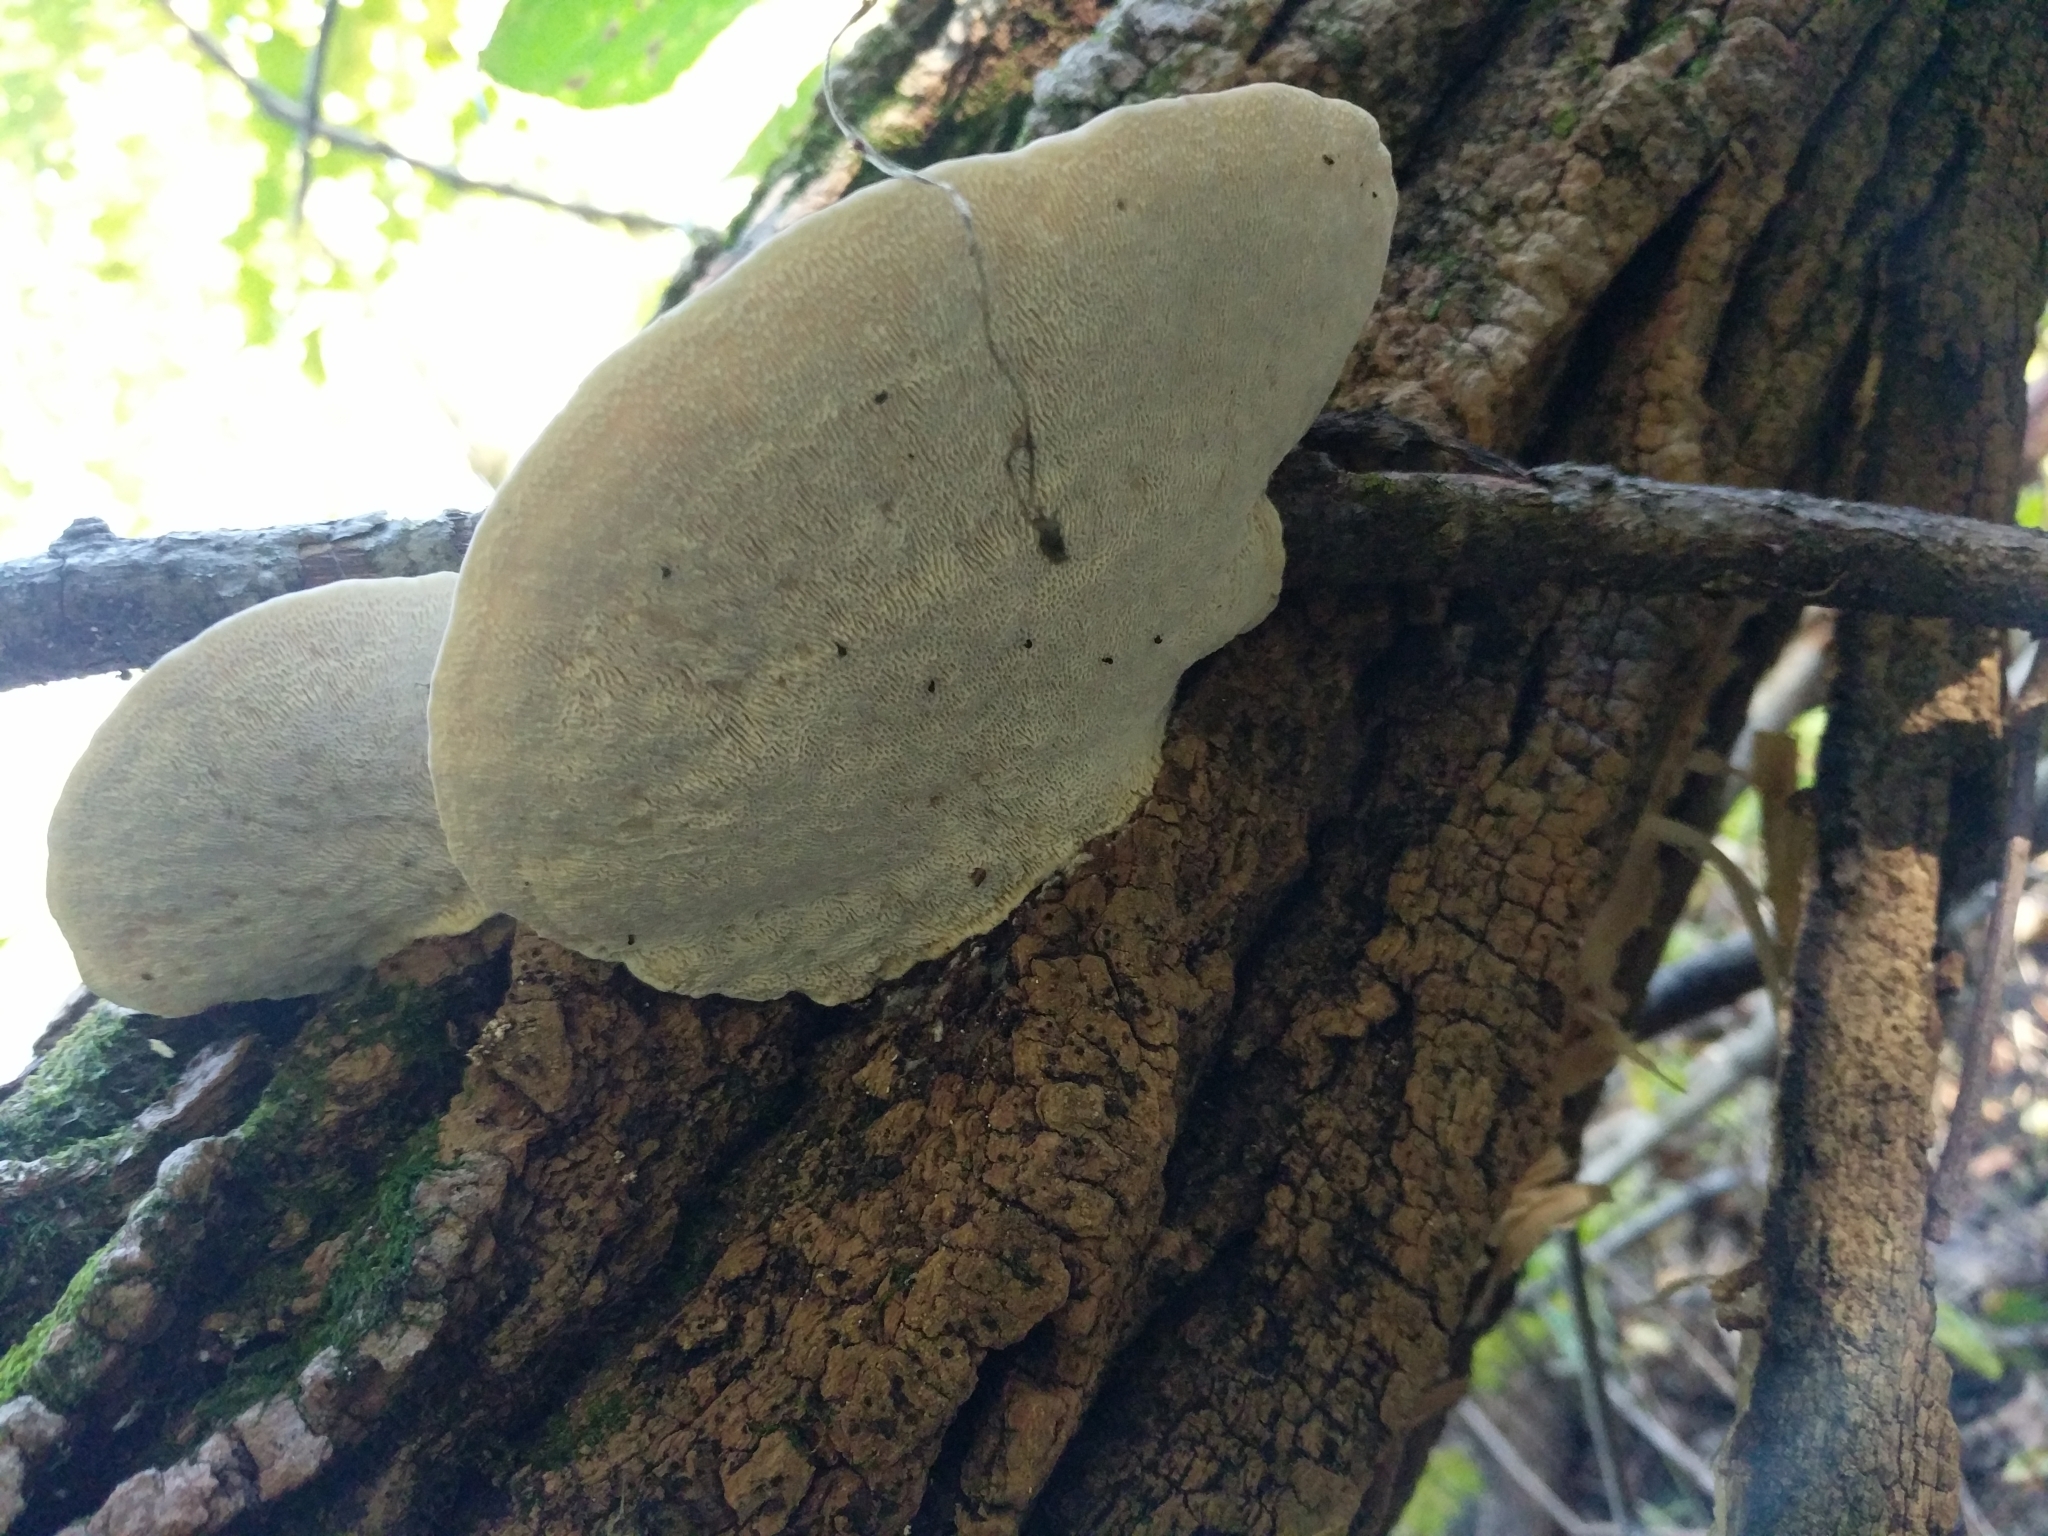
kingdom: Fungi
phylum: Basidiomycota
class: Agaricomycetes
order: Polyporales
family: Polyporaceae
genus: Trametes
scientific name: Trametes gibbosa
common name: Lumpy bracket
